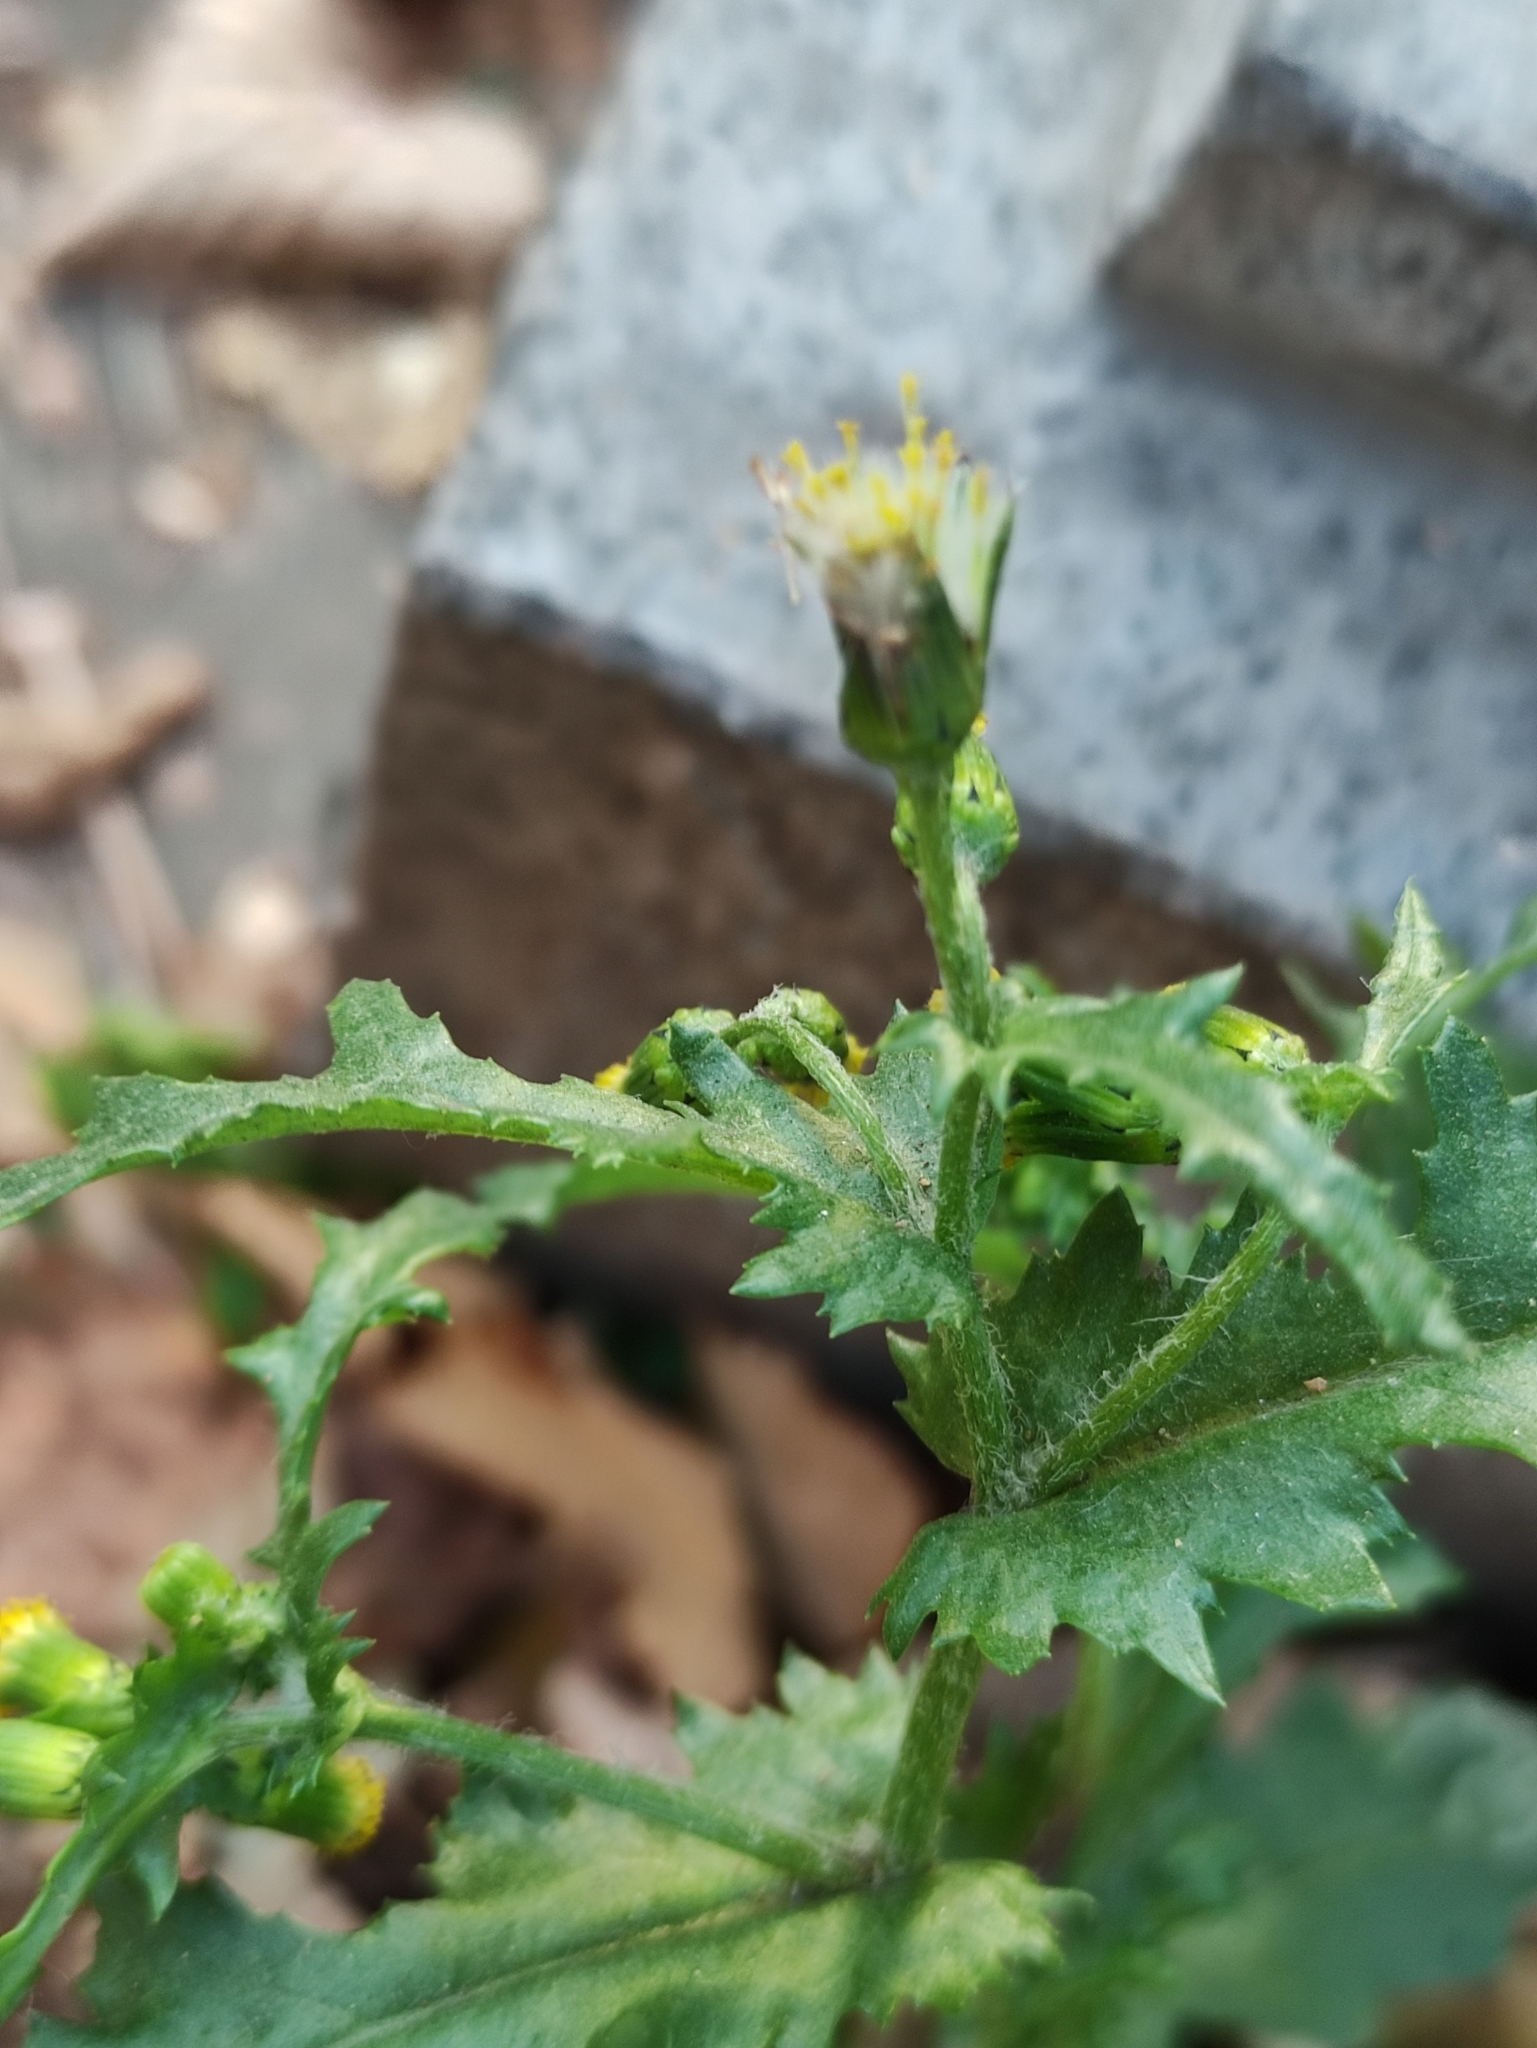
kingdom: Plantae
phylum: Tracheophyta
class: Magnoliopsida
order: Asterales
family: Asteraceae
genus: Senecio
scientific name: Senecio vulgaris
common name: Old-man-in-the-spring
